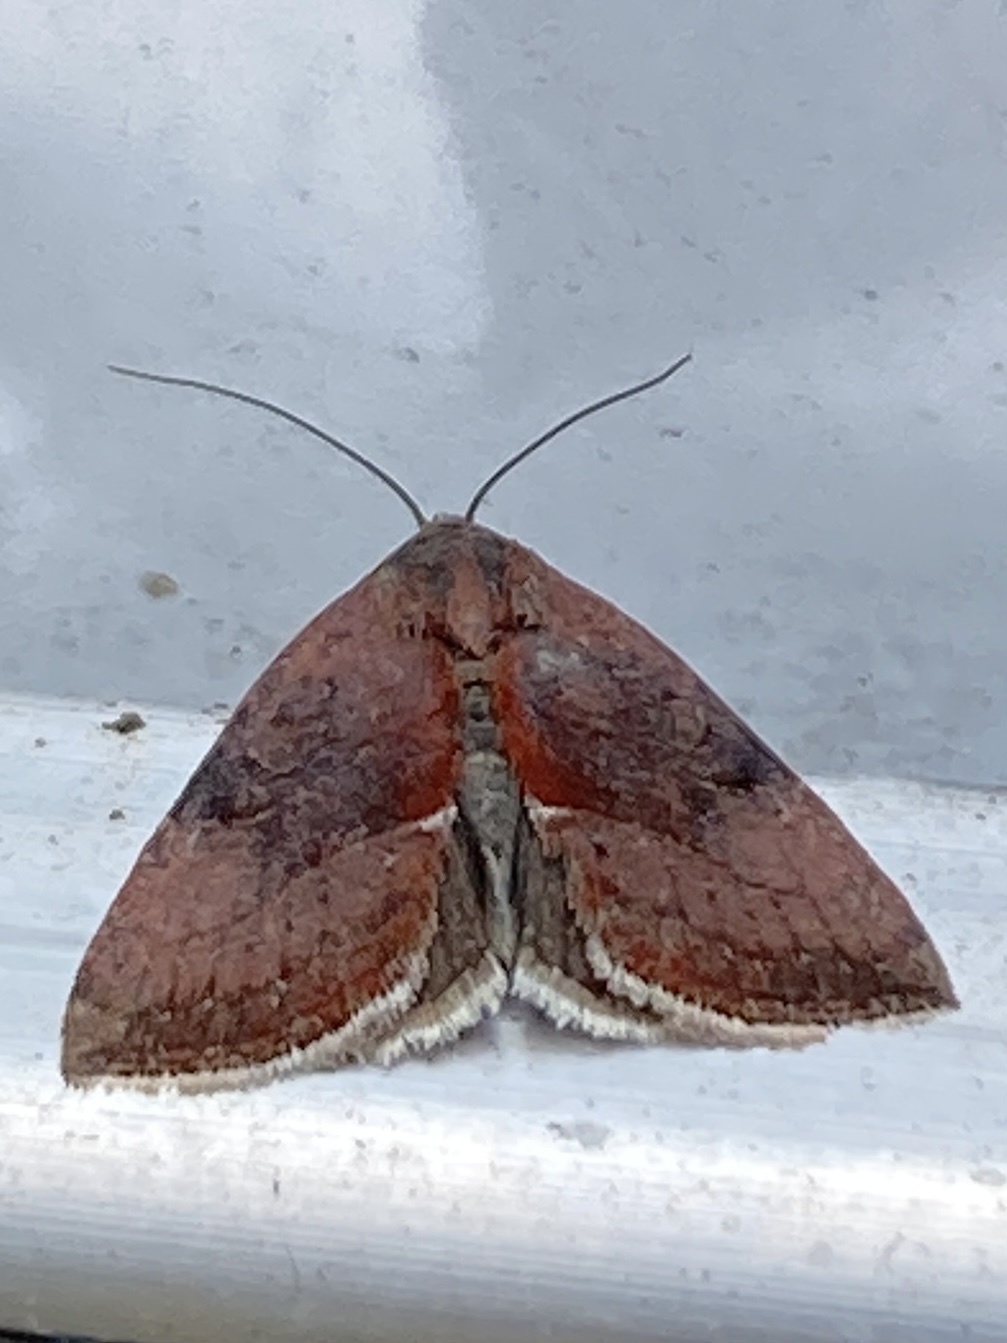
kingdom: Animalia
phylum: Arthropoda
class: Insecta
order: Lepidoptera
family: Noctuidae
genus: Galgula
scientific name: Galgula partita
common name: Wedgeling
